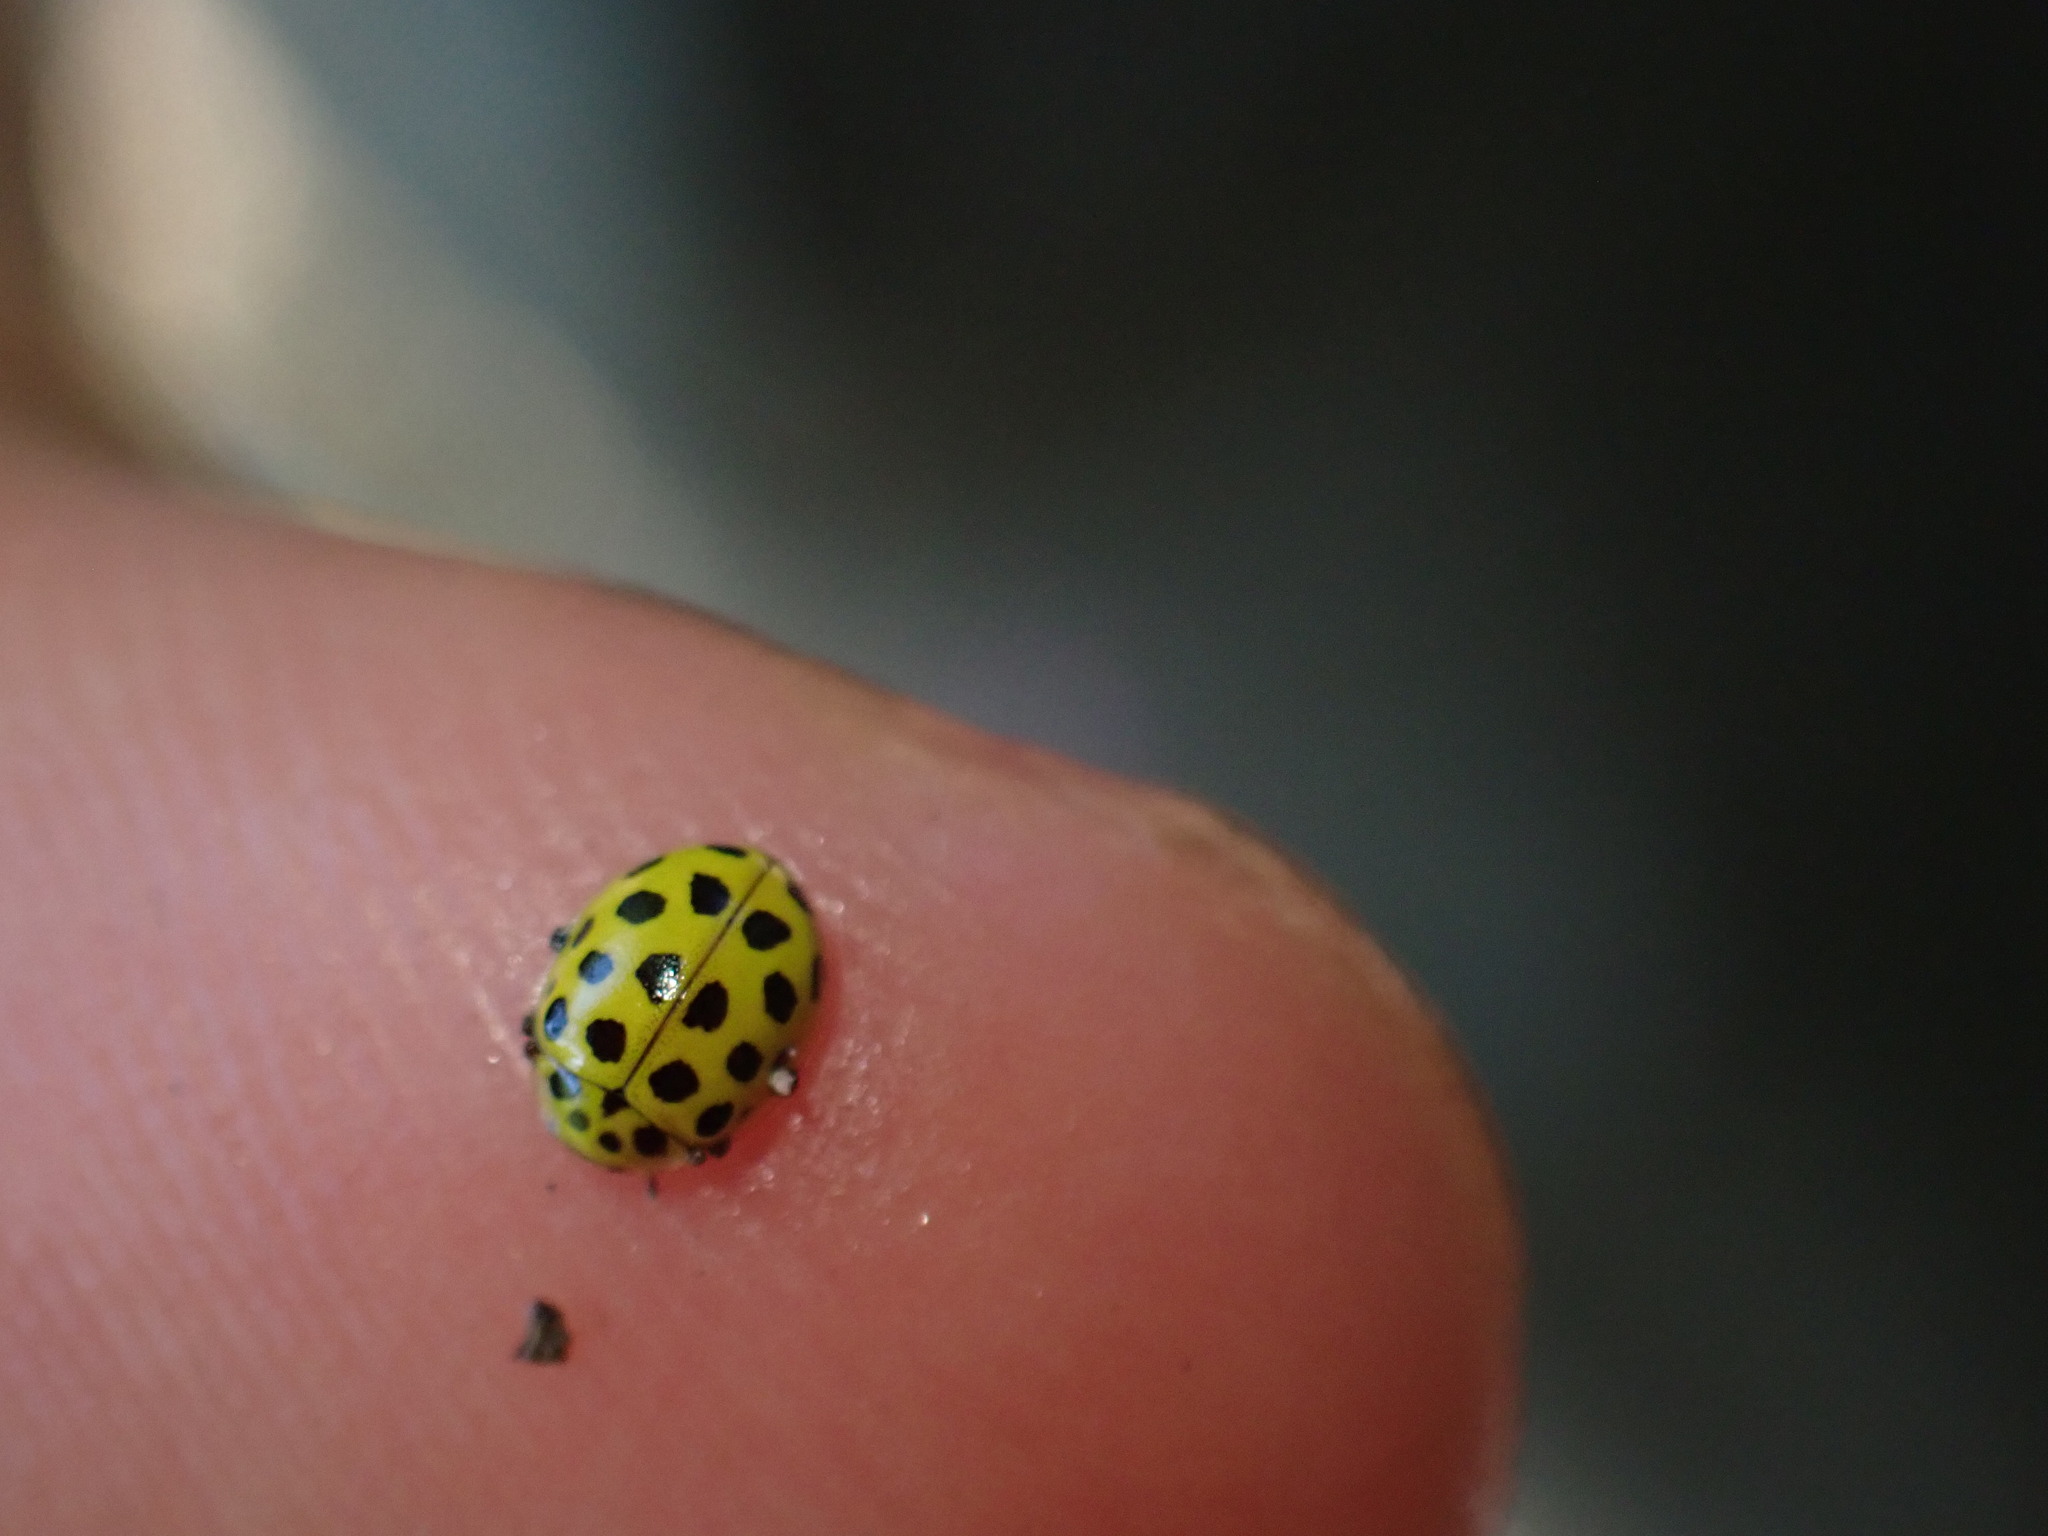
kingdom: Animalia
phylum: Arthropoda
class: Insecta
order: Coleoptera
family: Coccinellidae
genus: Psyllobora
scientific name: Psyllobora vigintiduopunctata
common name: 22-spot ladybird
